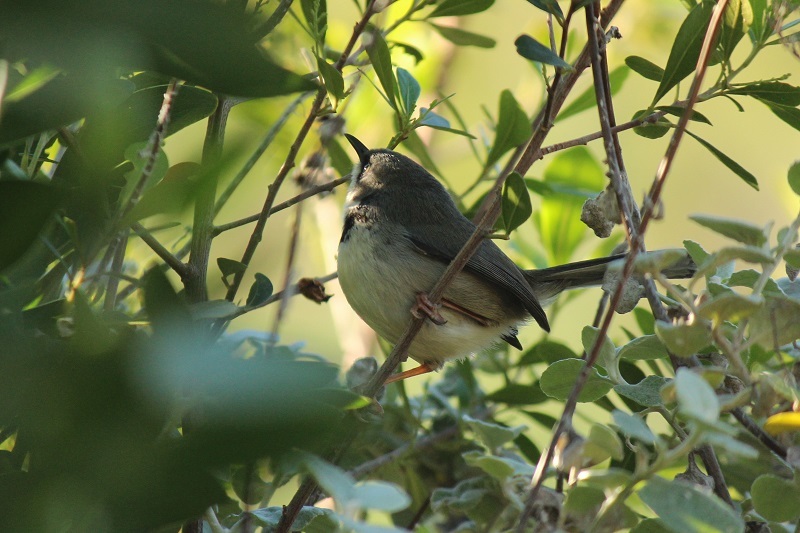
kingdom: Animalia
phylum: Chordata
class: Aves
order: Passeriformes
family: Cisticolidae
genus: Apalis
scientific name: Apalis thoracica
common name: Bar-throated apalis
